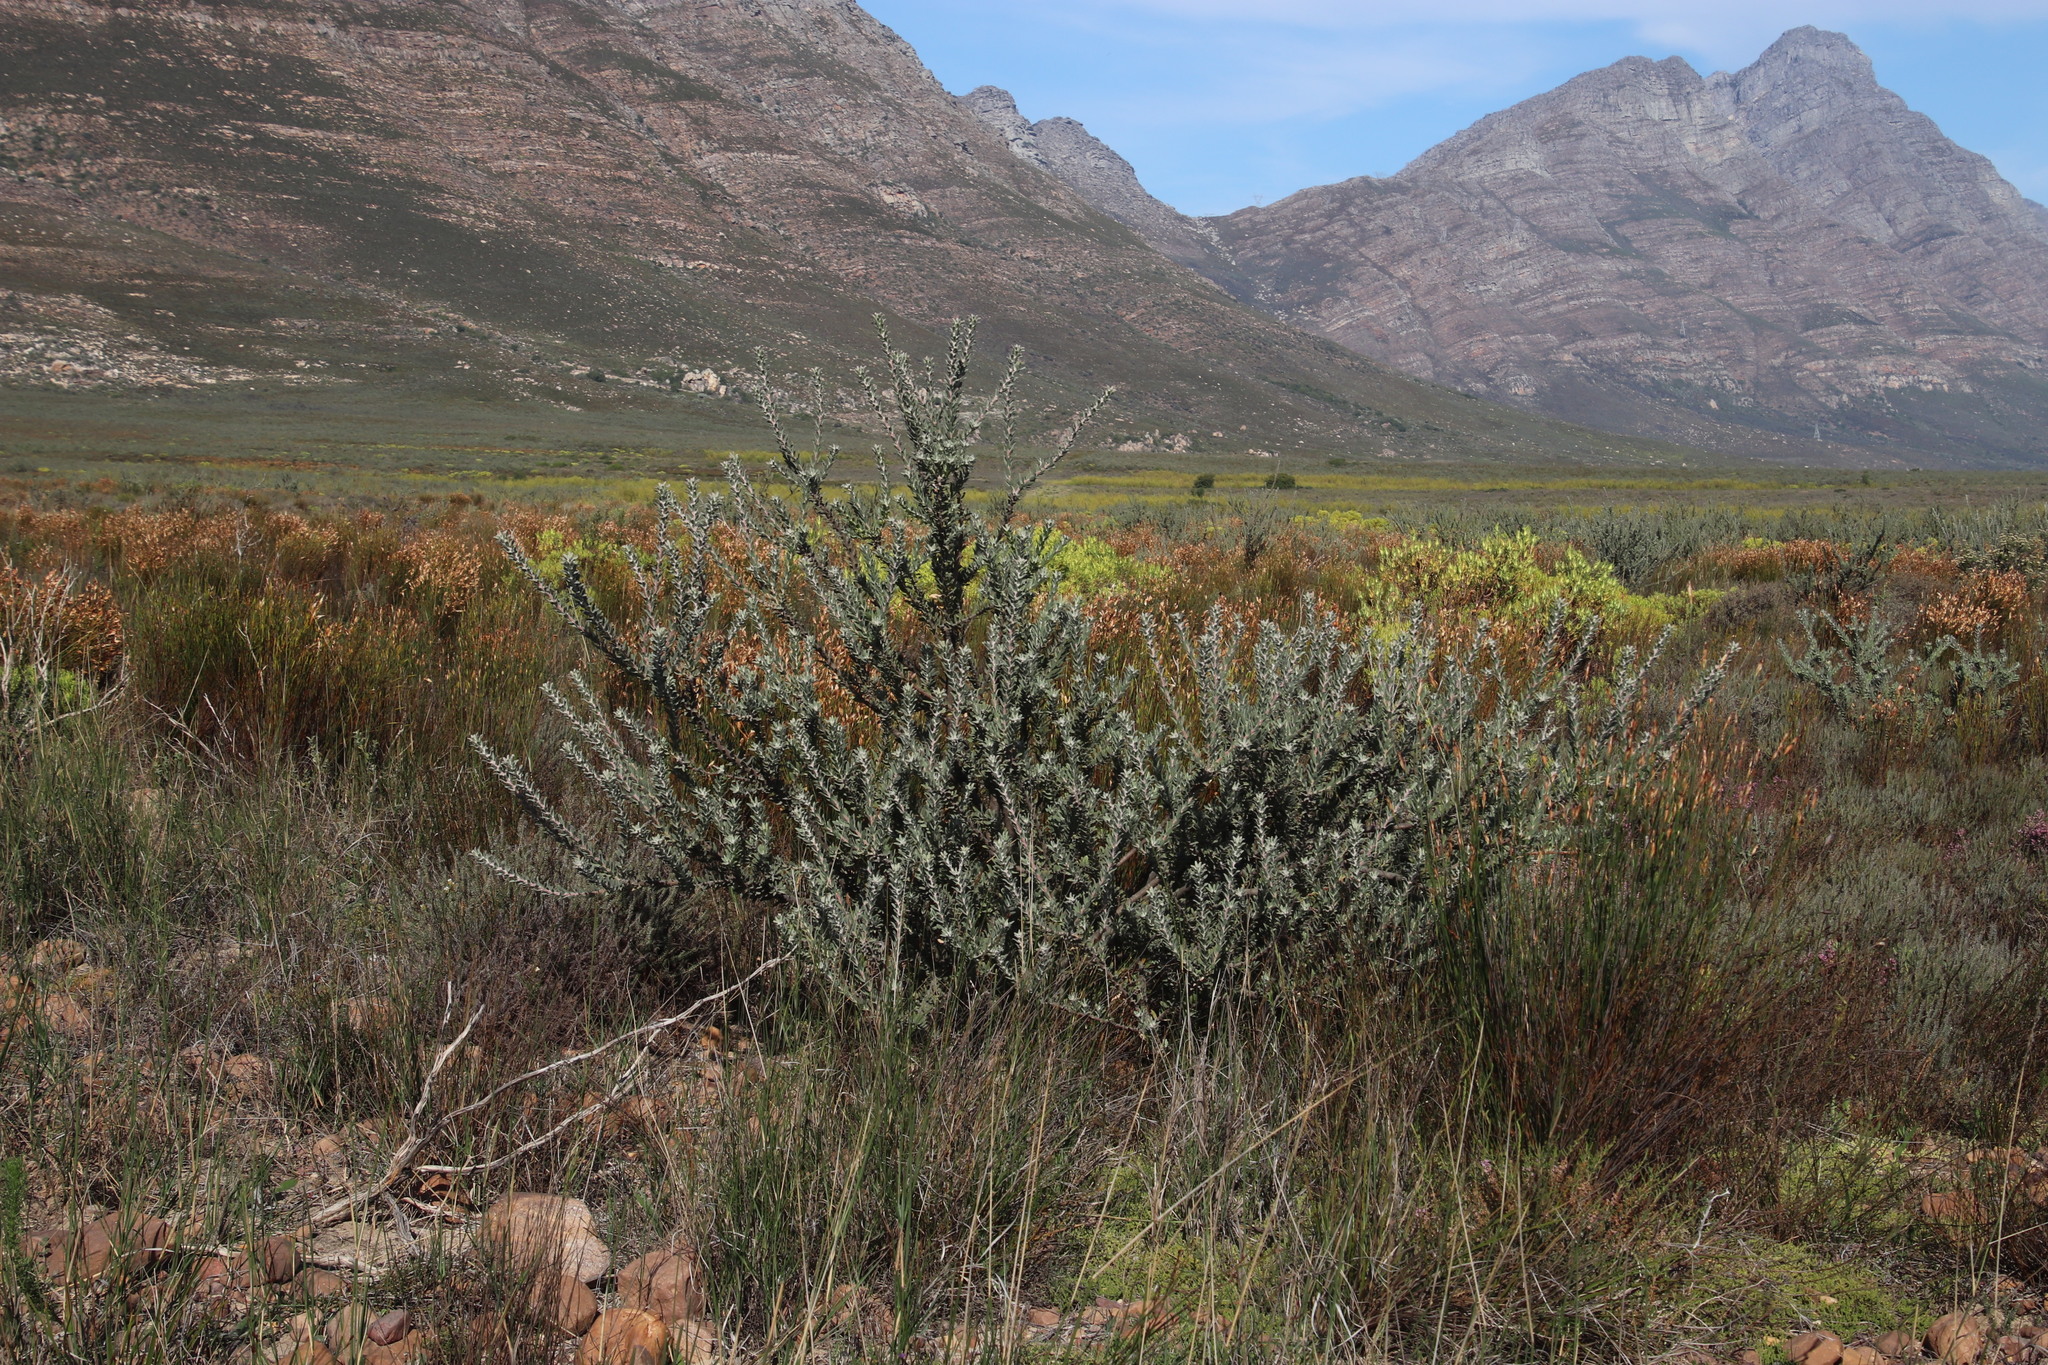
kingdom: Plantae
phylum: Tracheophyta
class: Magnoliopsida
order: Proteales
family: Proteaceae
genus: Leucospermum
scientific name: Leucospermum calligerum
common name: Arid pincushion
